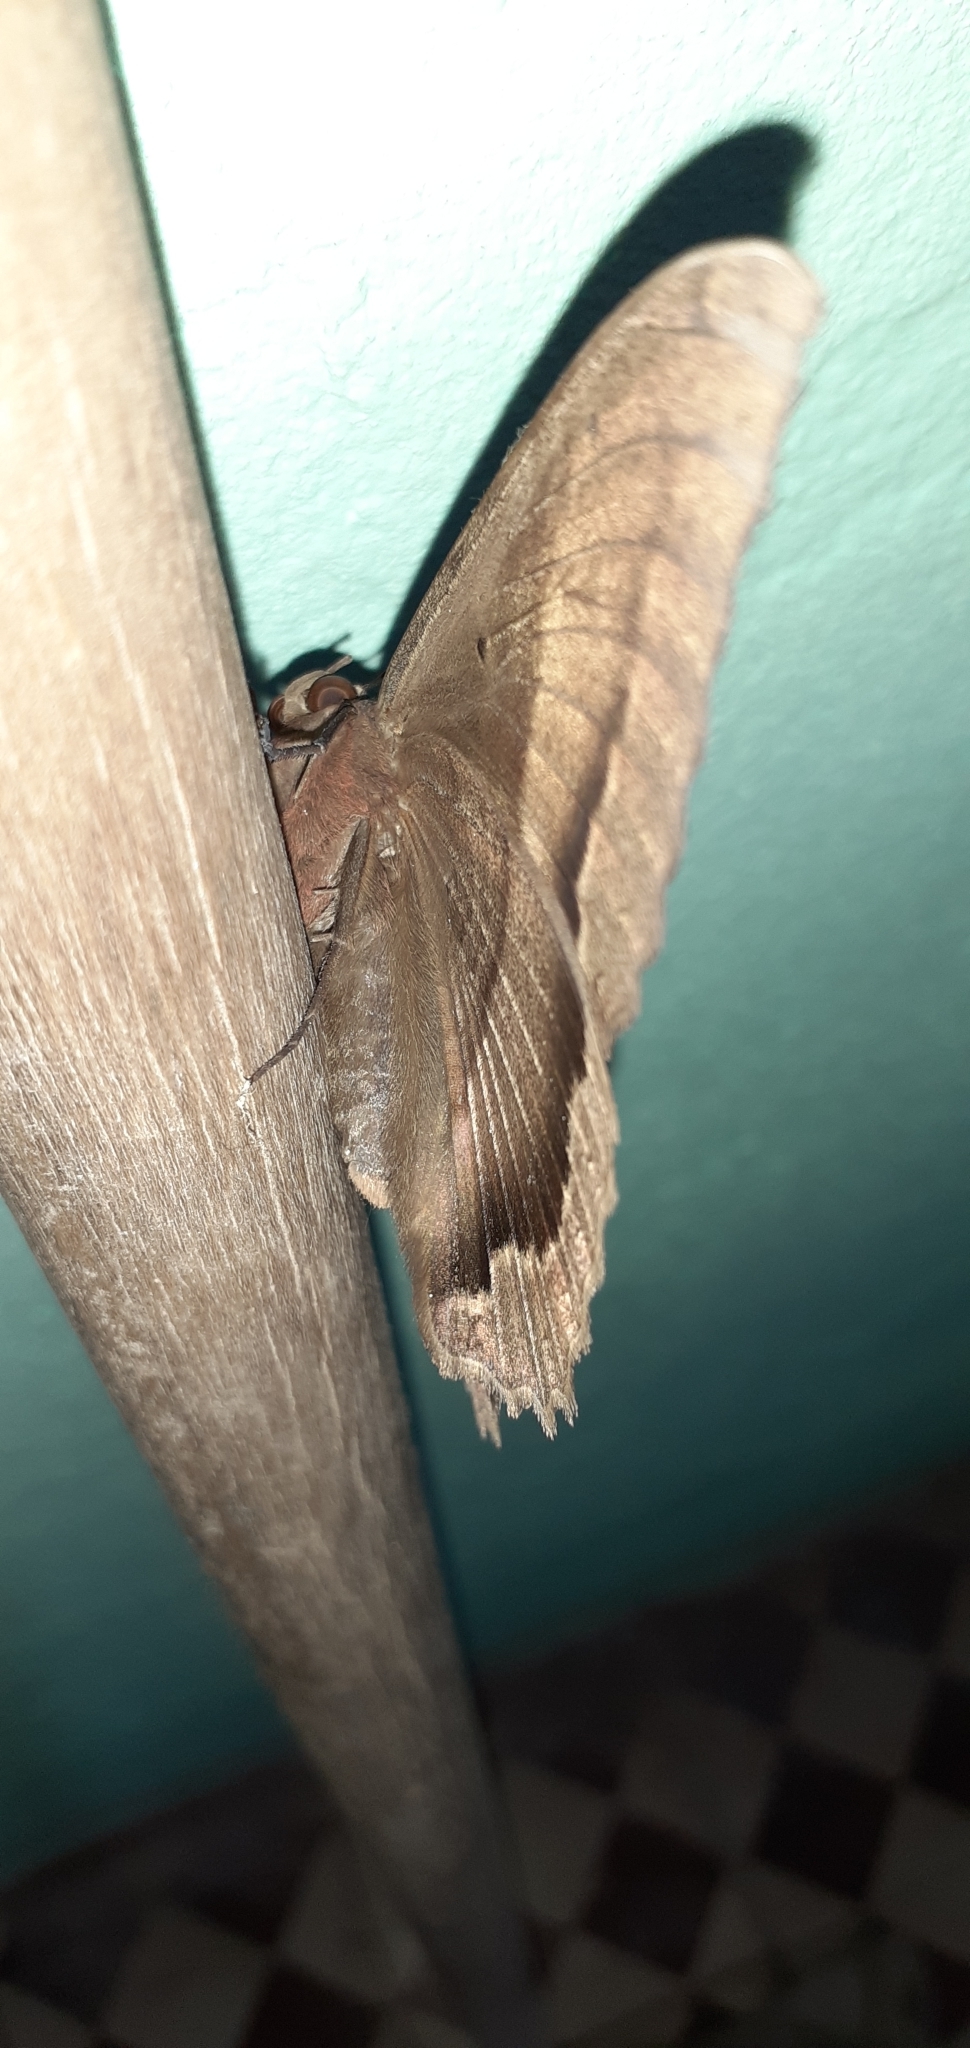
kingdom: Animalia
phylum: Arthropoda
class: Insecta
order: Lepidoptera
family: Erebidae
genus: Ascalapha
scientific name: Ascalapha odorata
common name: Black witch
